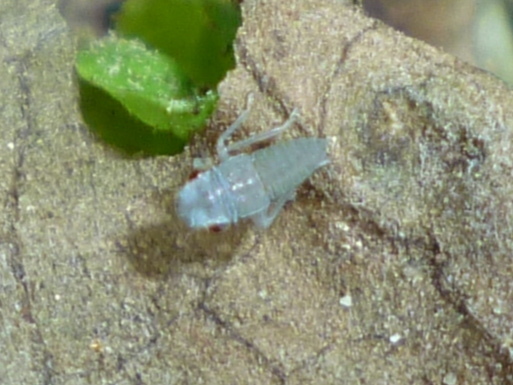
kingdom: Animalia
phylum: Arthropoda
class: Insecta
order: Hemiptera
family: Cicadellidae
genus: Oncometopia
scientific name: Oncometopia orbona
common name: Broad-headed sharpshooter
